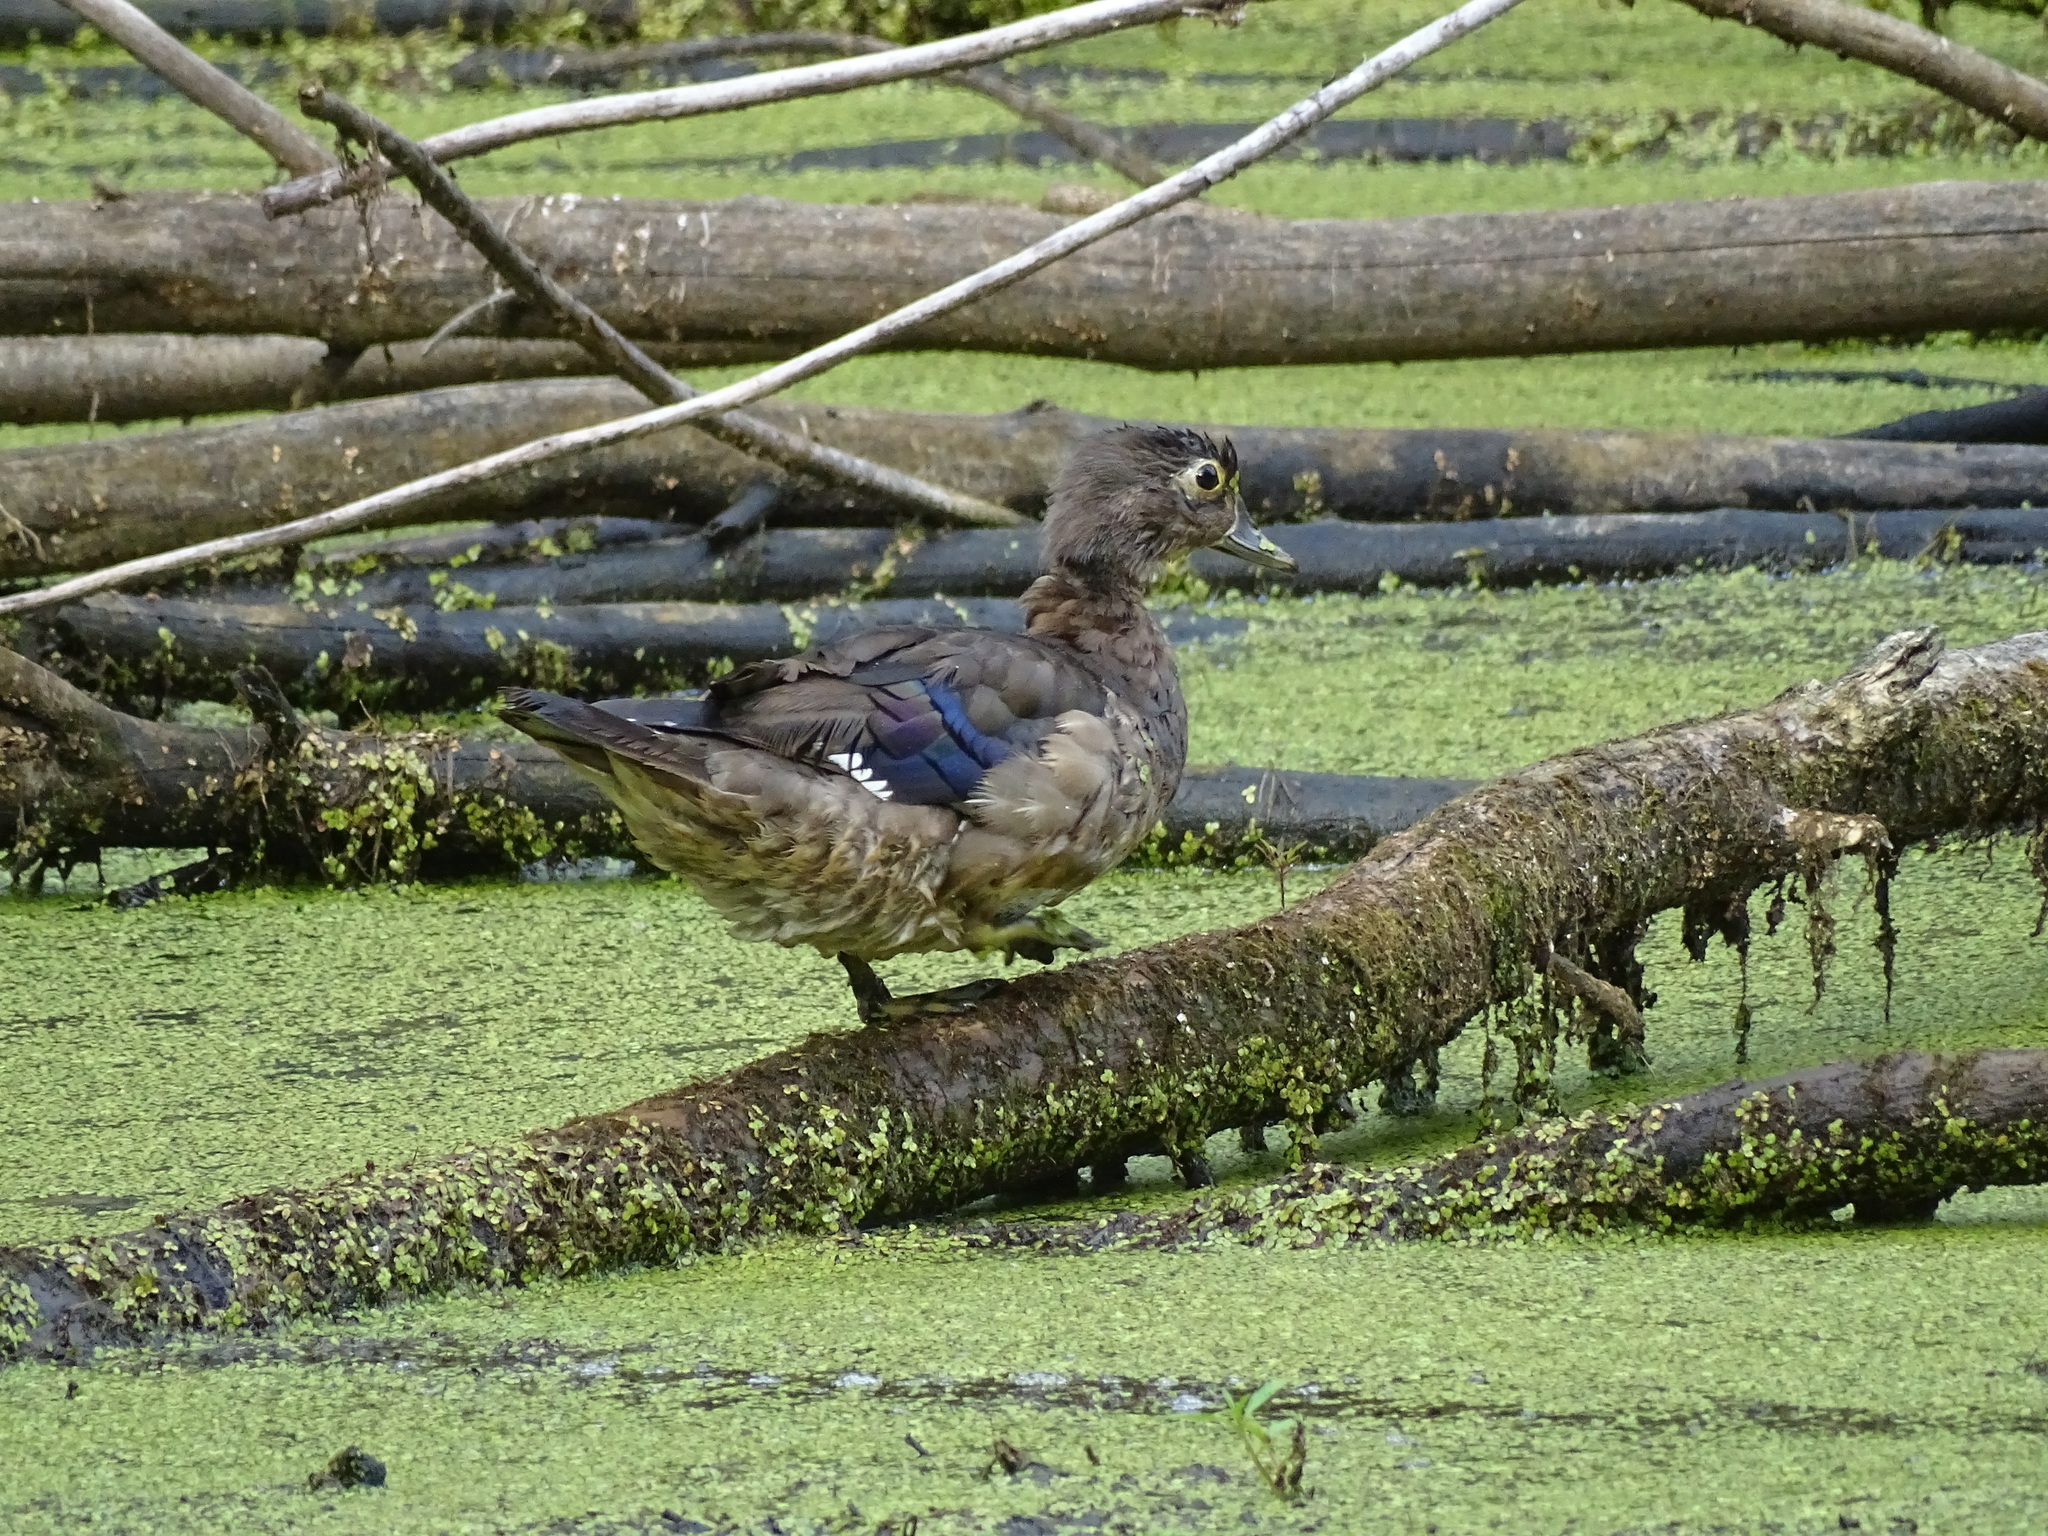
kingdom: Animalia
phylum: Chordata
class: Aves
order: Anseriformes
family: Anatidae
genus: Aix
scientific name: Aix sponsa
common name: Wood duck
